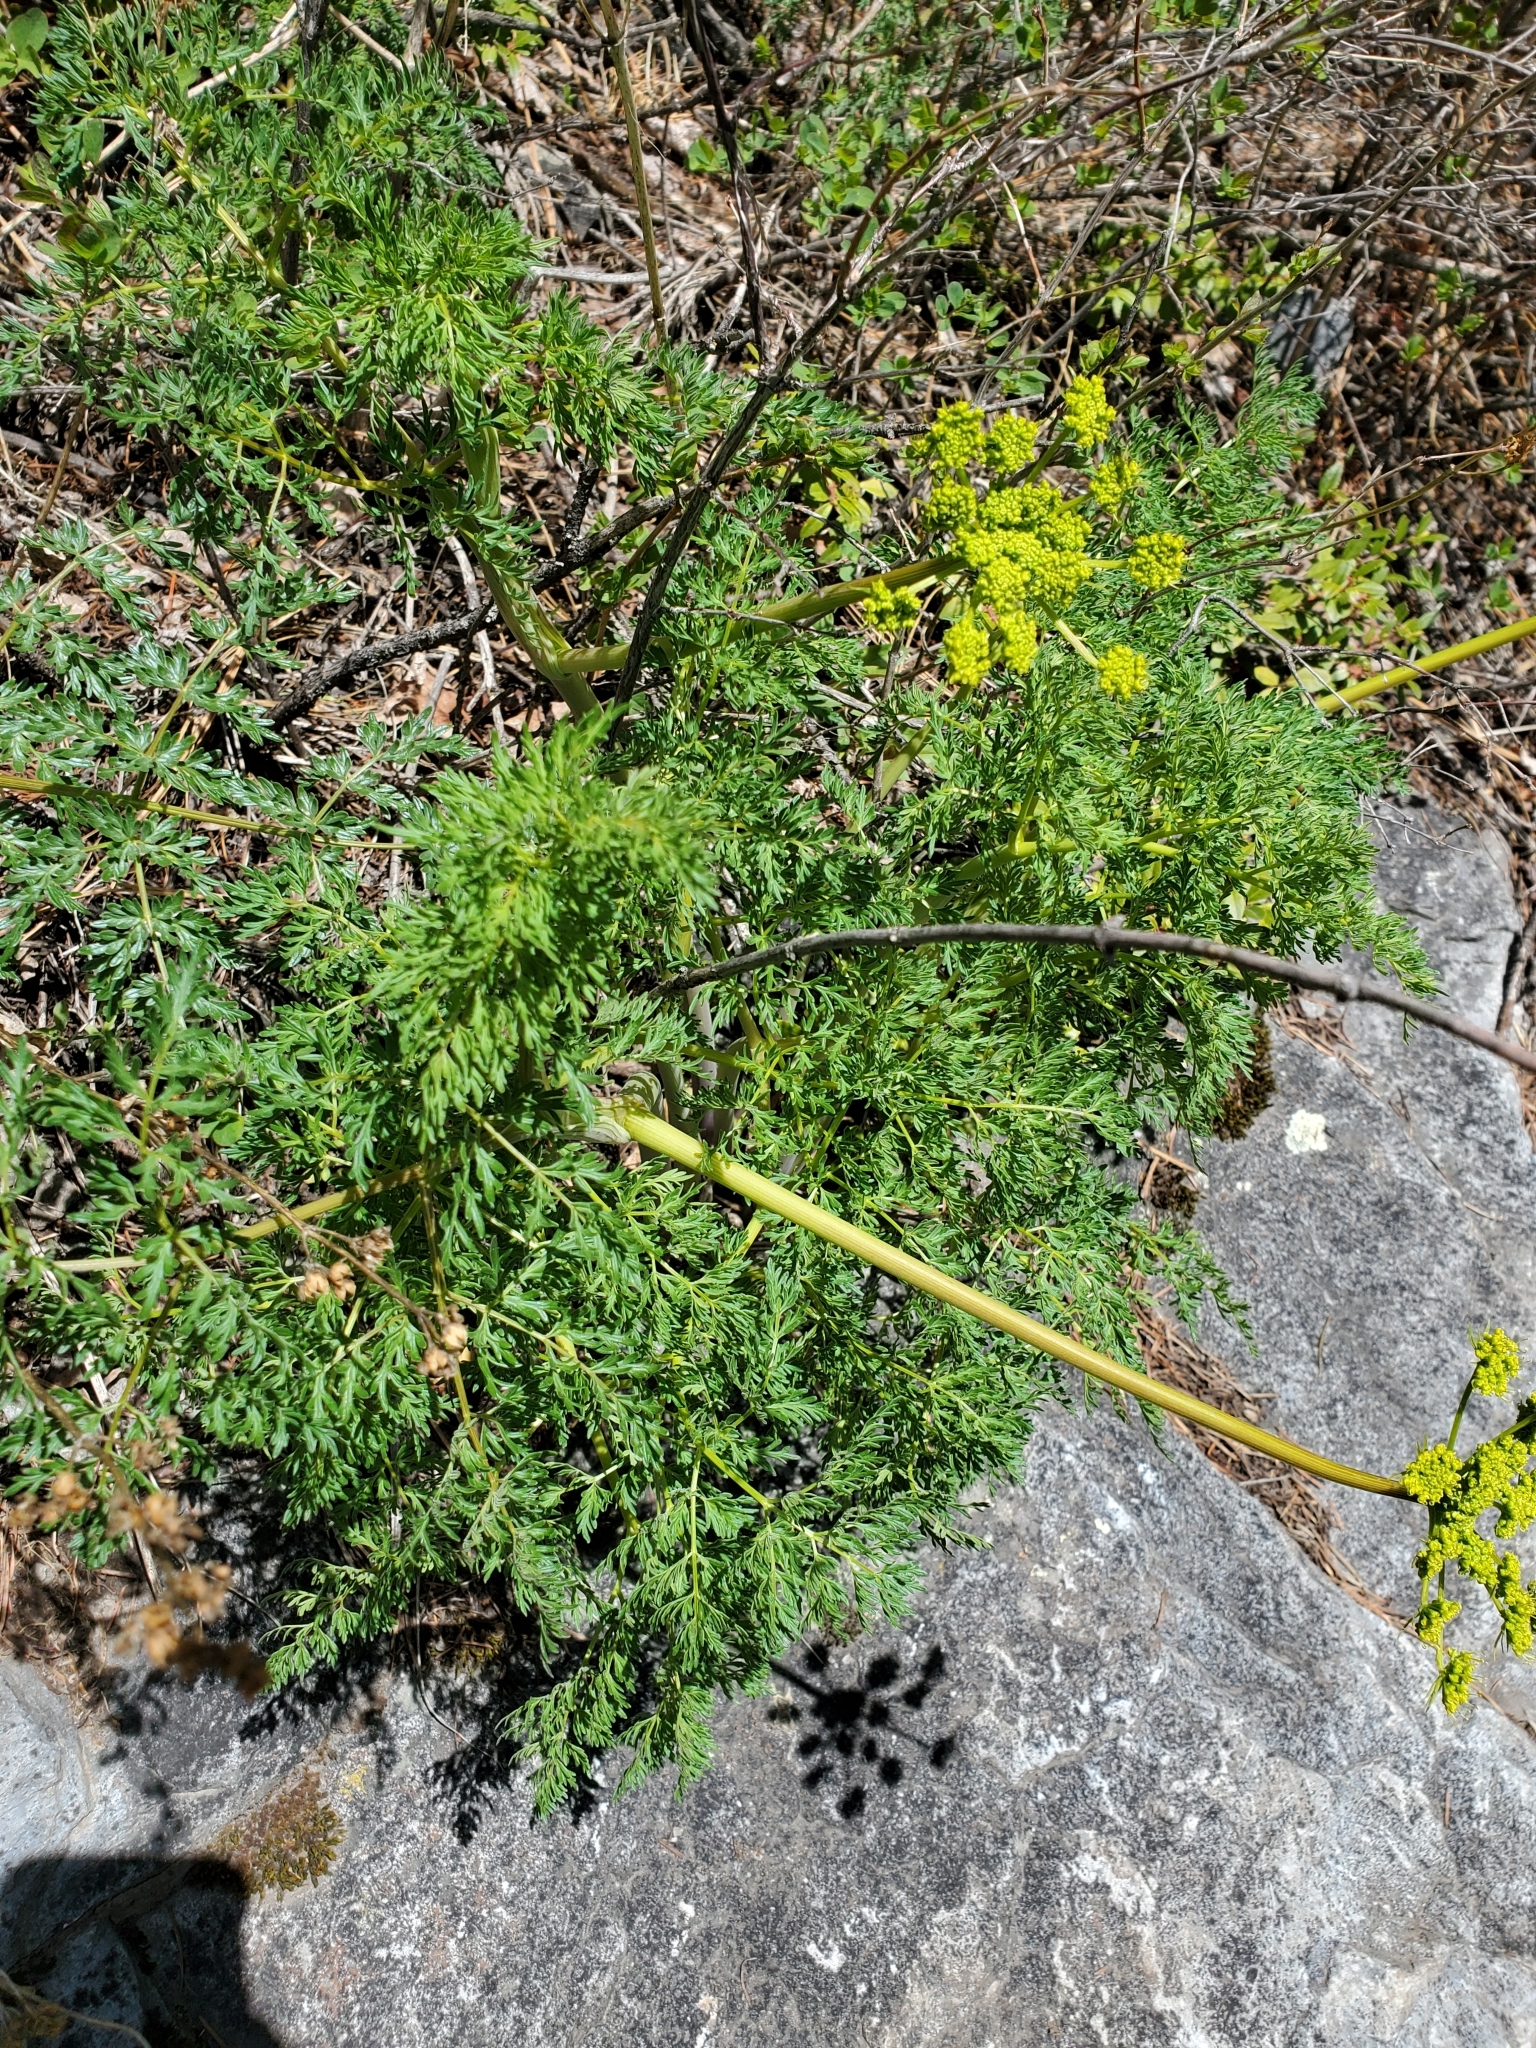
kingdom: Plantae
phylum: Tracheophyta
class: Magnoliopsida
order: Apiales
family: Apiaceae
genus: Lomatium
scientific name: Lomatium multifidum
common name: Carrot-leaved biscuitroot
